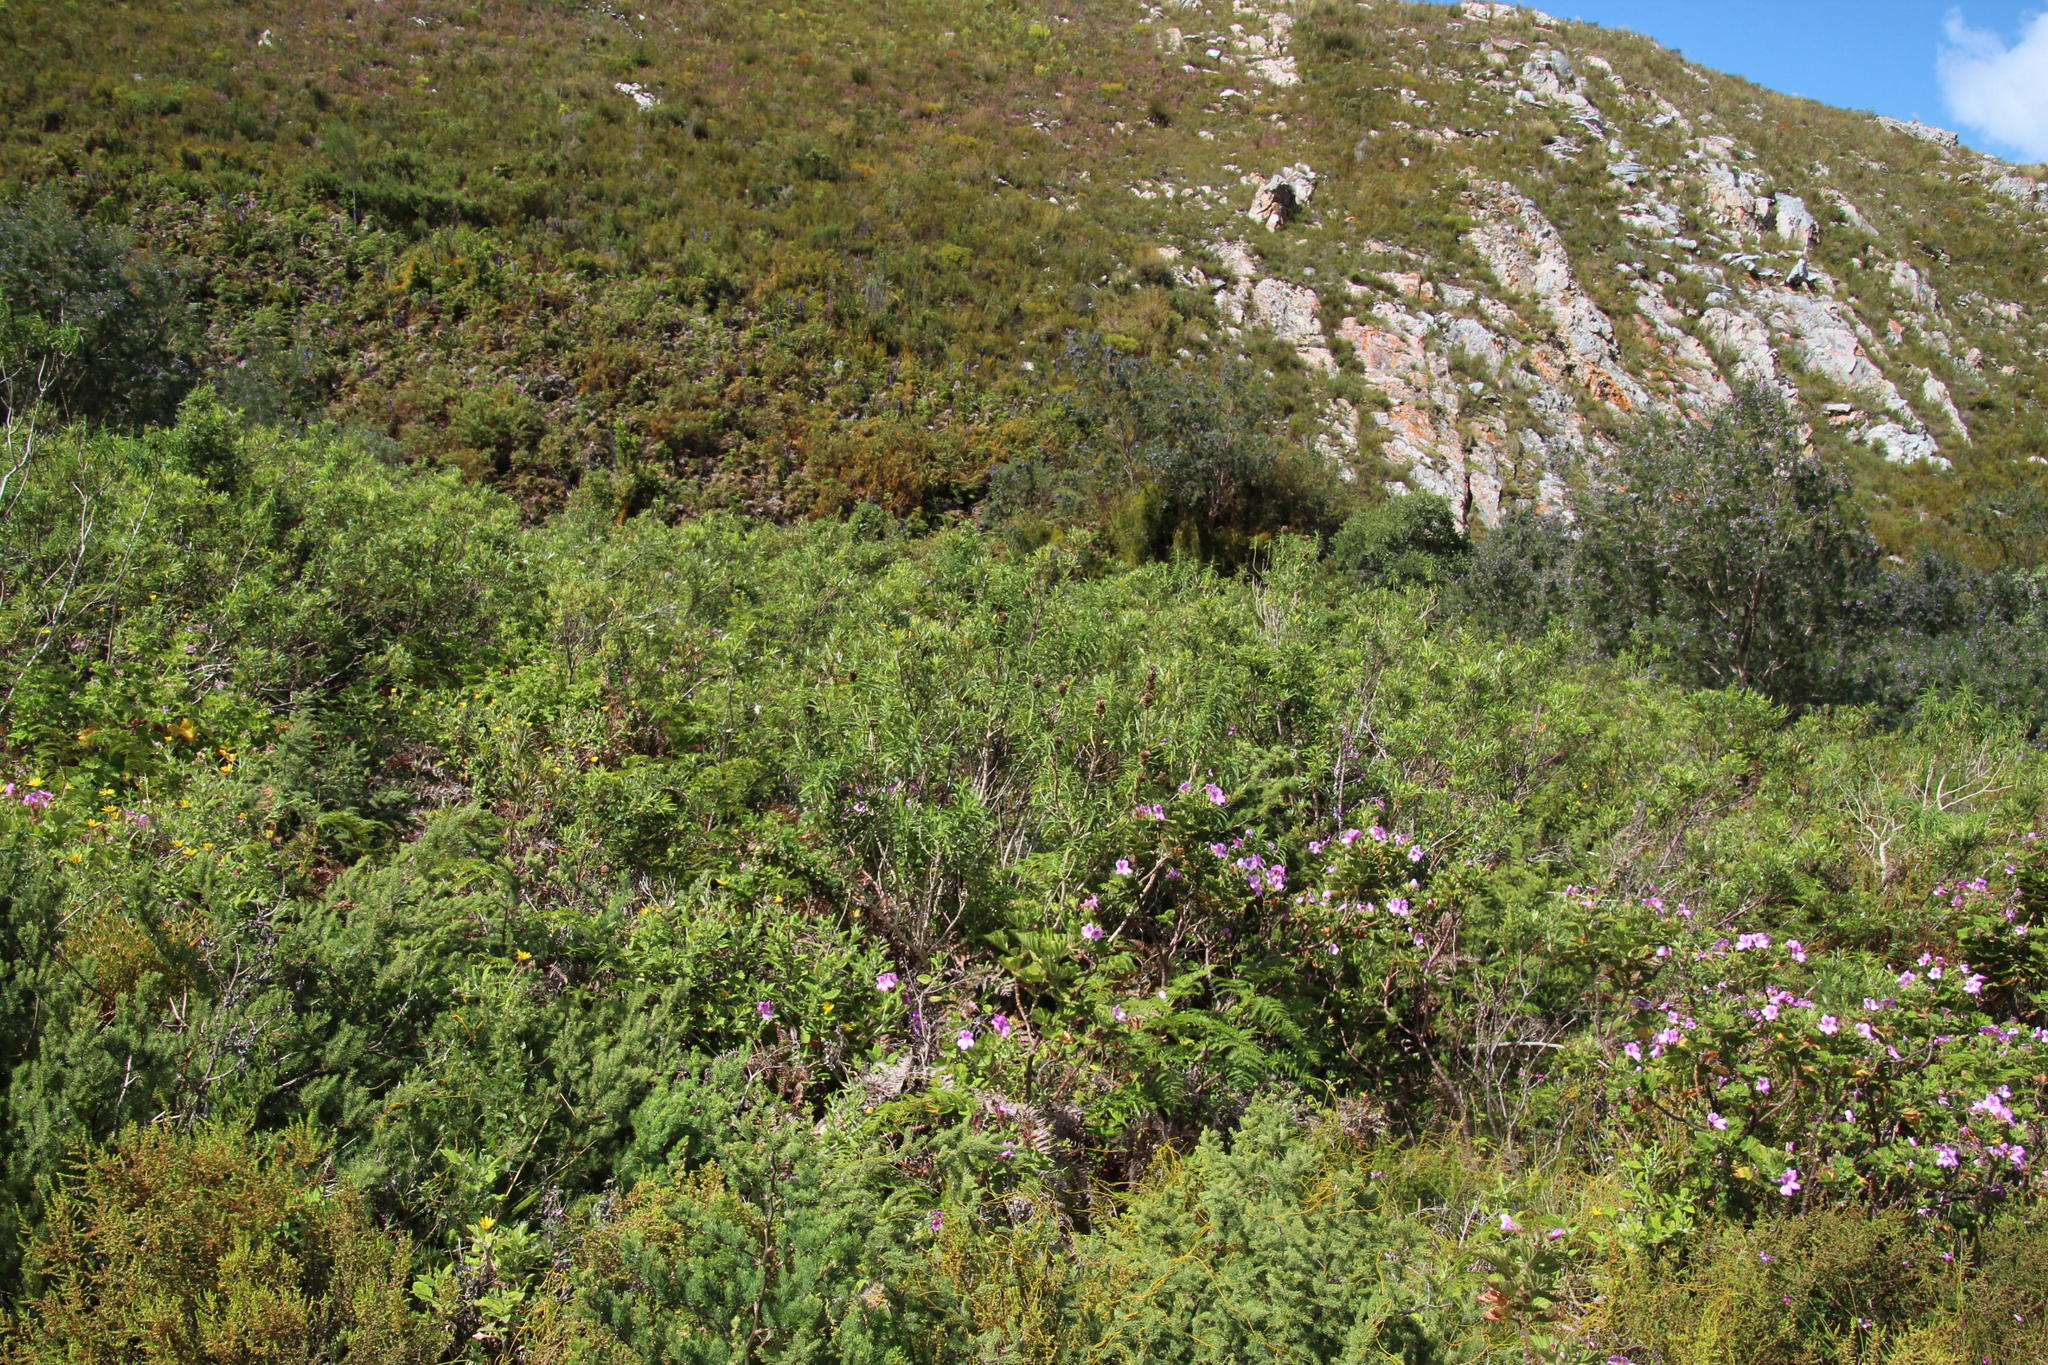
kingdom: Plantae
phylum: Tracheophyta
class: Magnoliopsida
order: Lamiales
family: Lamiaceae
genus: Leonotis
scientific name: Leonotis leonurus
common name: Lion's ear
